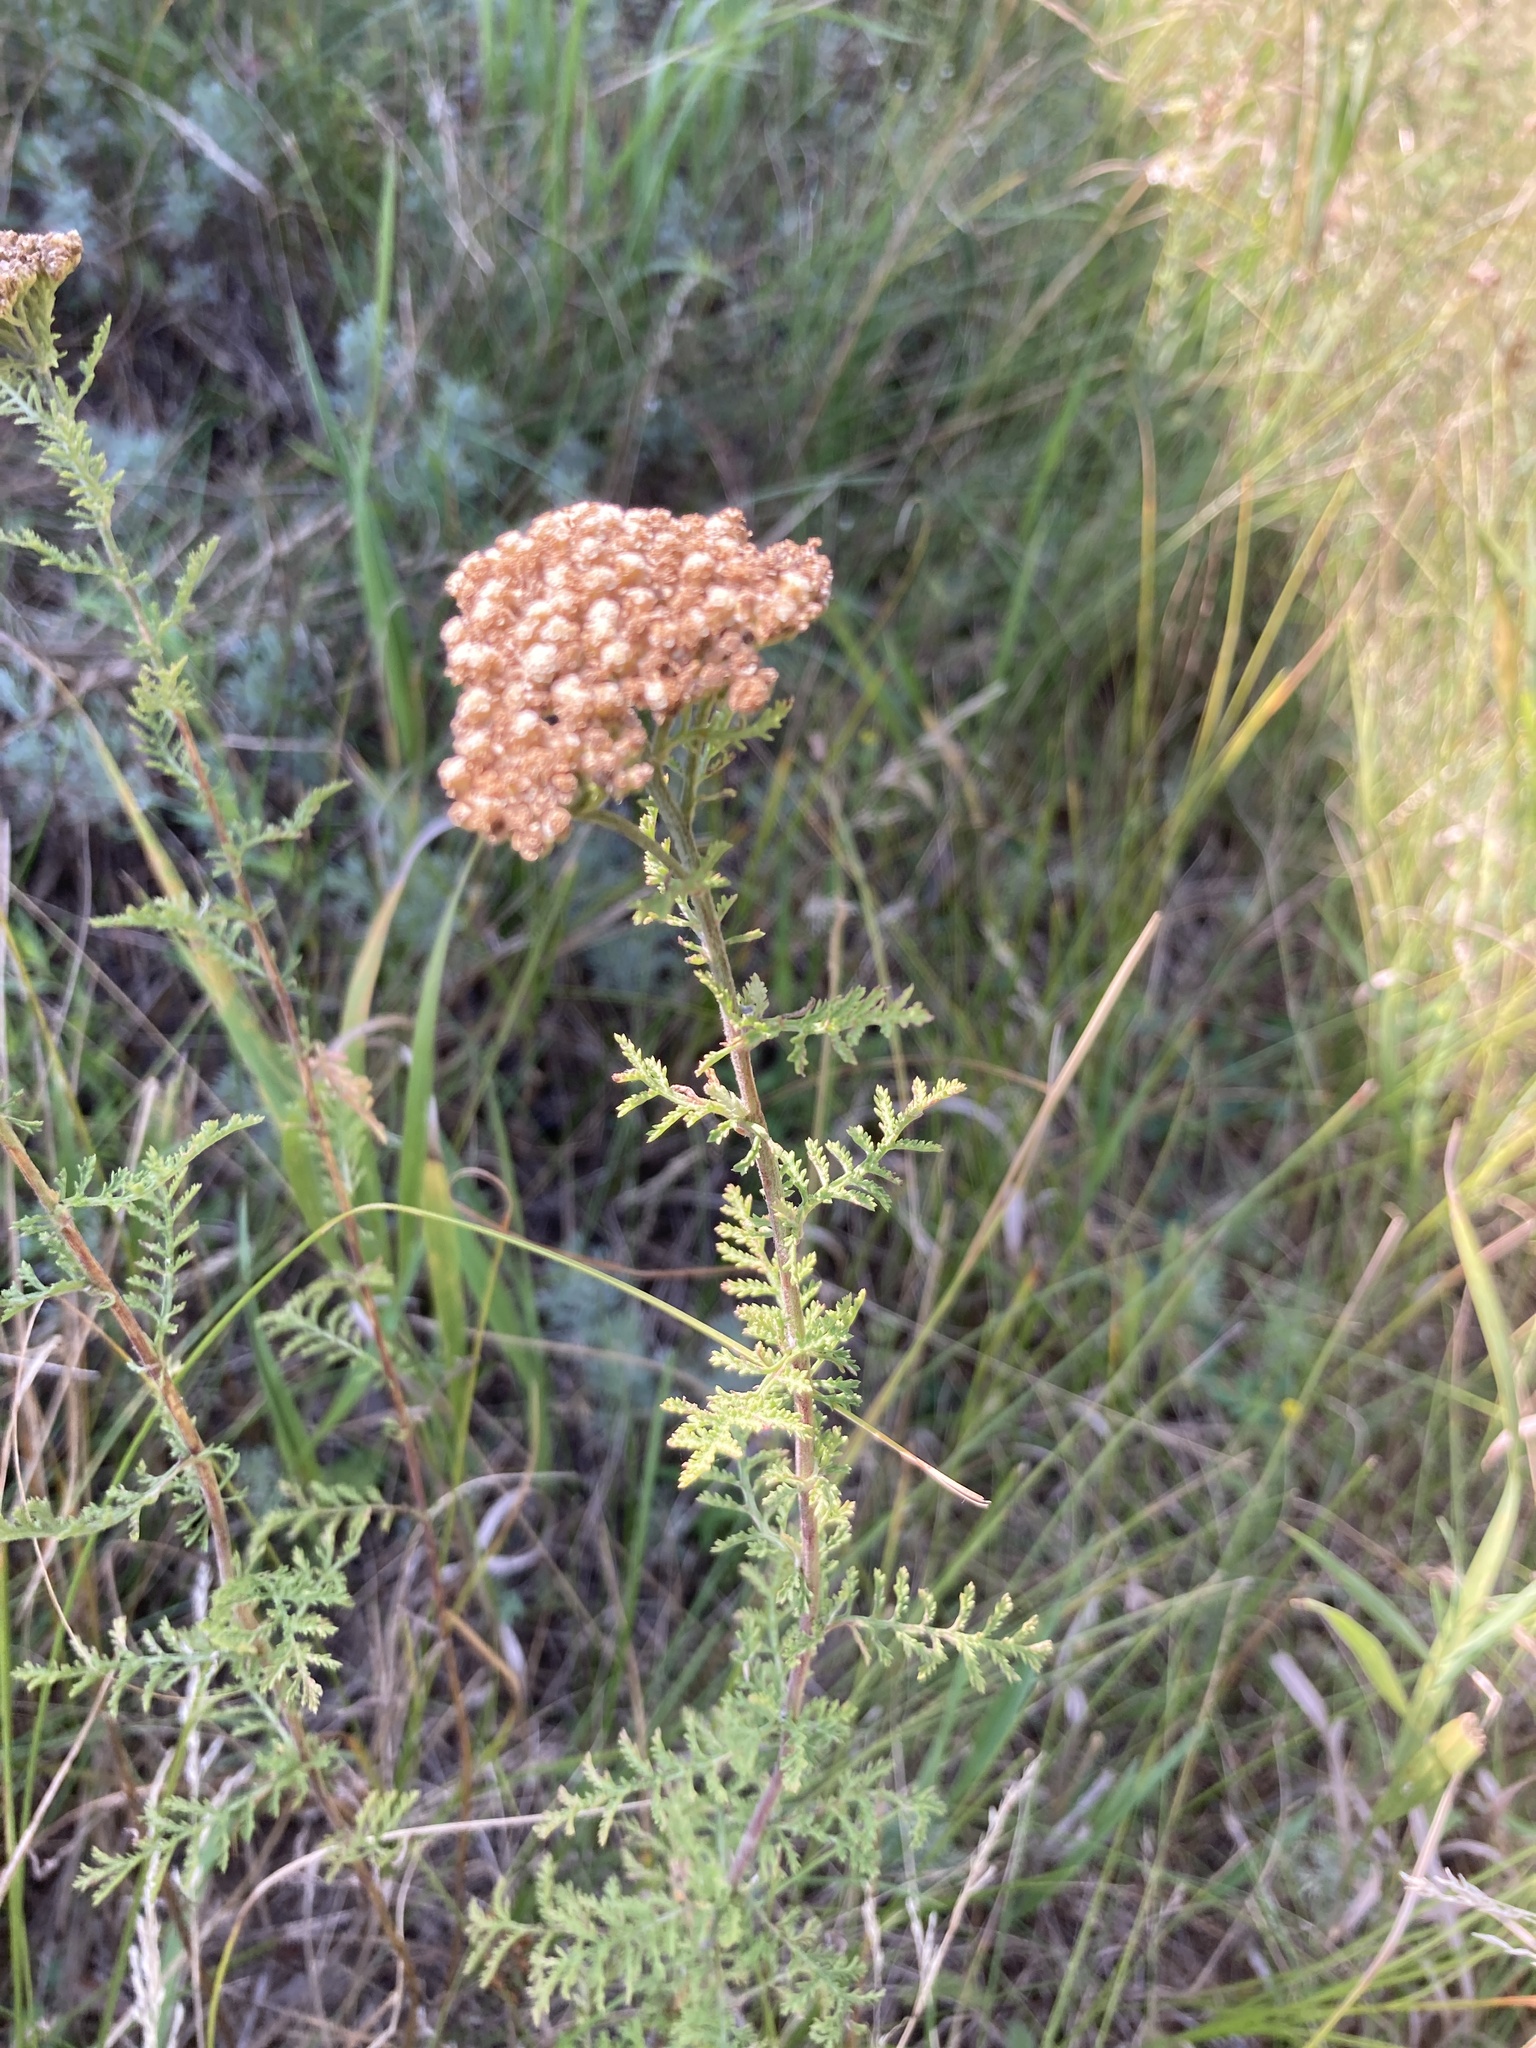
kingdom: Plantae
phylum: Tracheophyta
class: Magnoliopsida
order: Asterales
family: Asteraceae
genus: Achillea
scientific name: Achillea nobilis
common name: Noble yarrow
